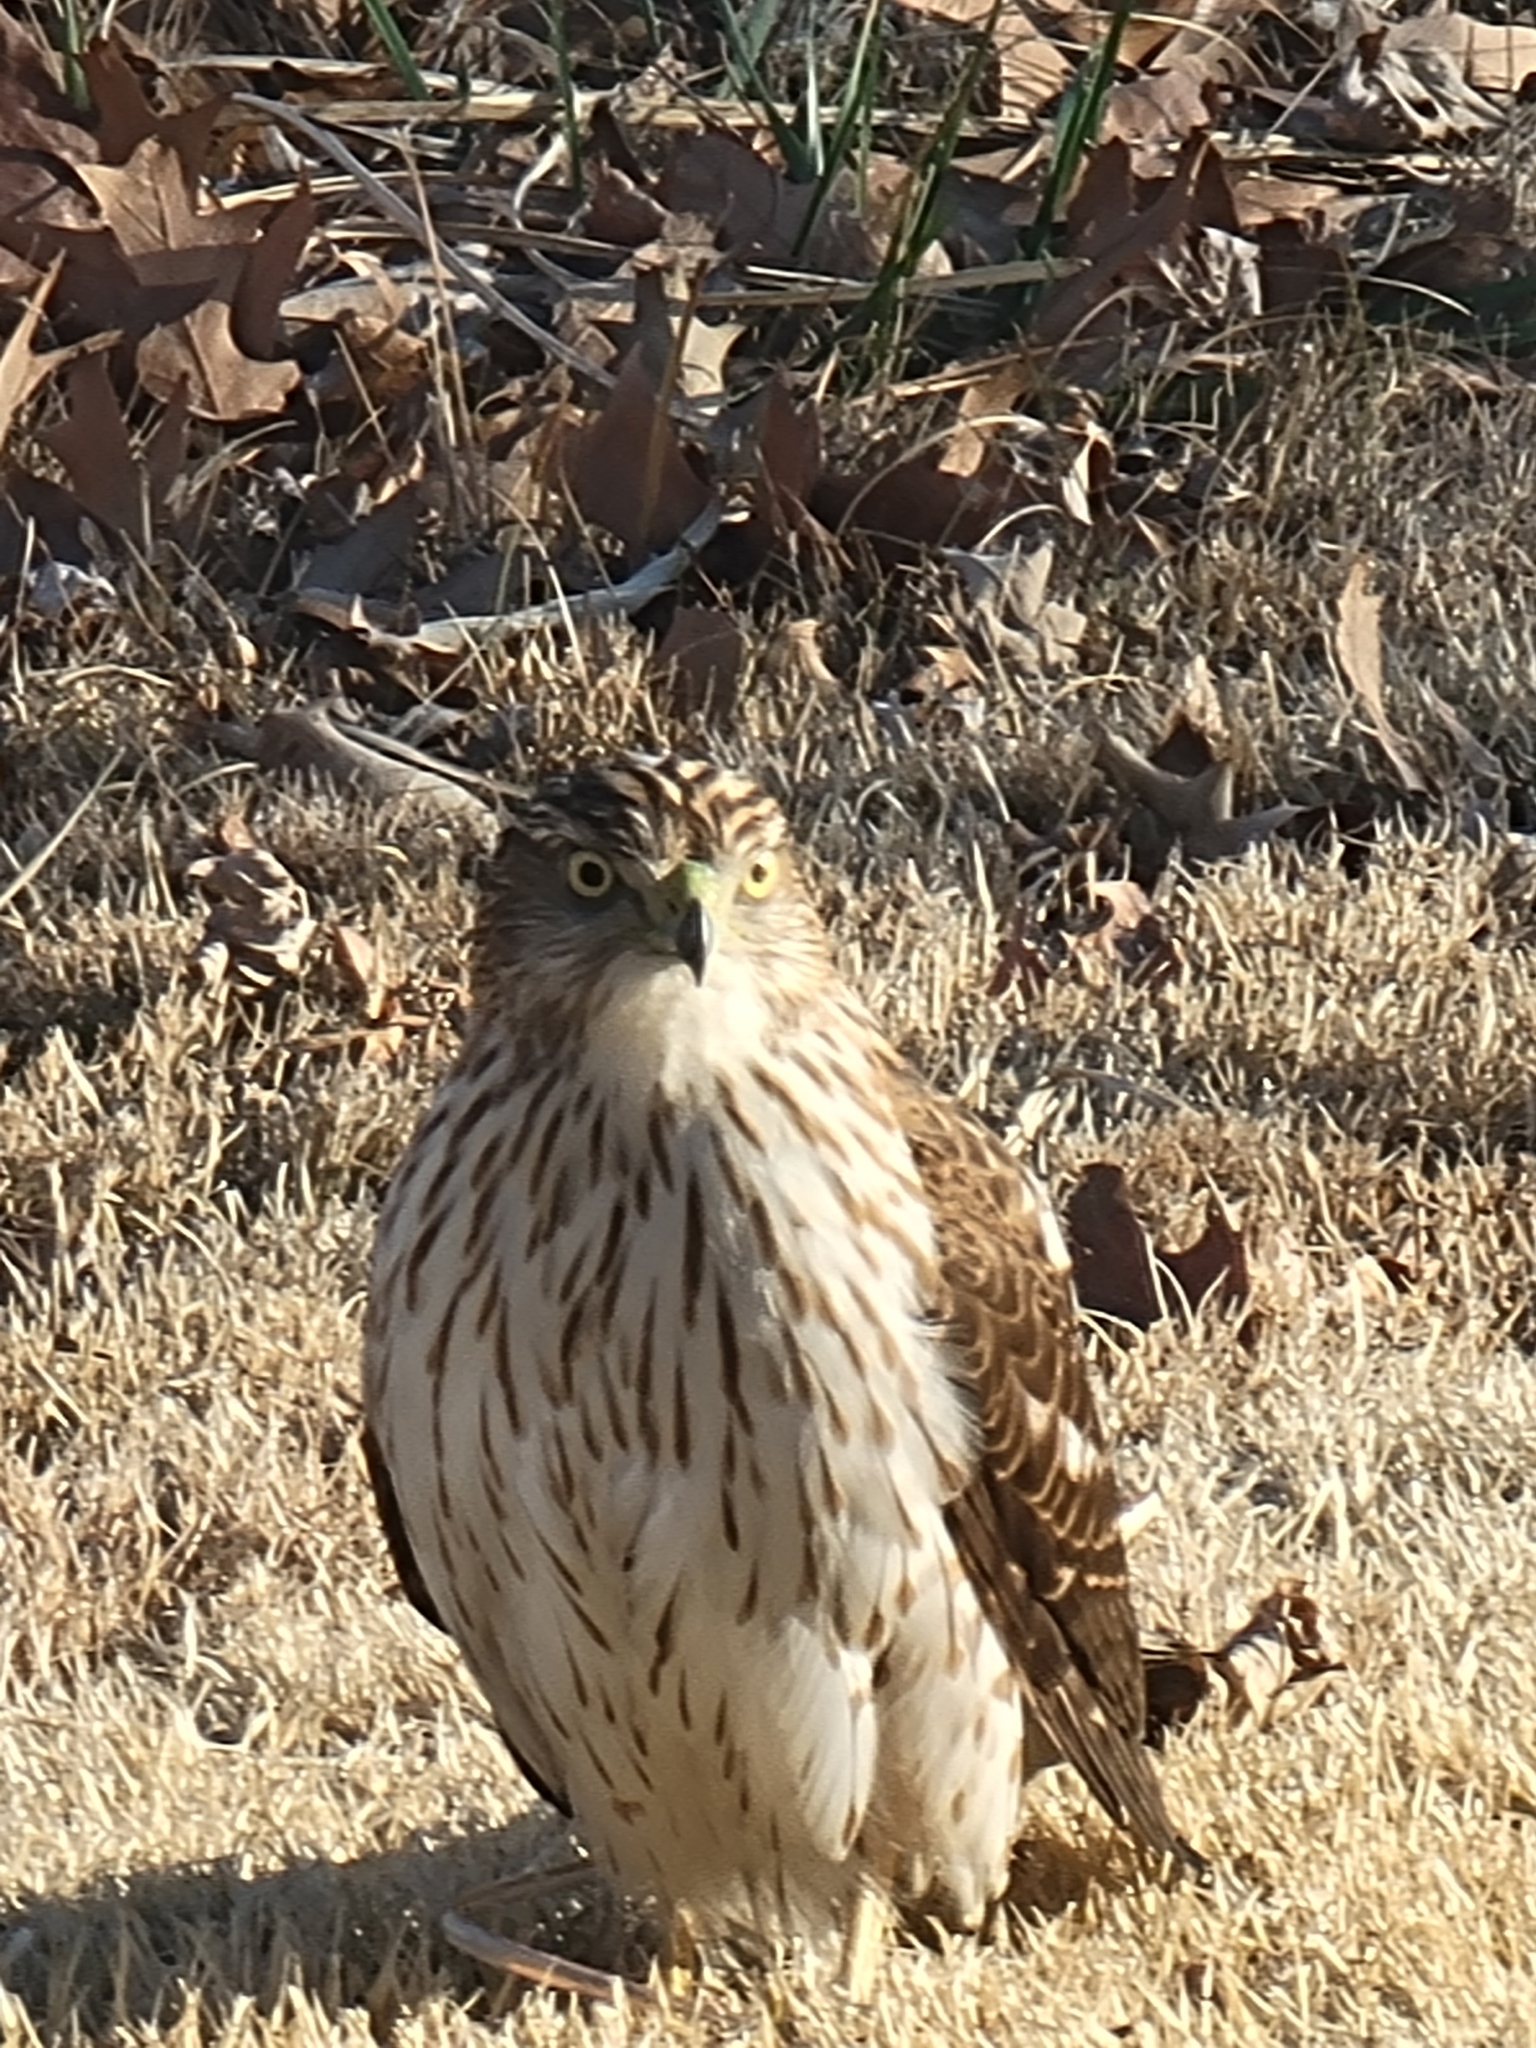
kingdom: Animalia
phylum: Chordata
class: Aves
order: Accipitriformes
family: Accipitridae
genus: Accipiter
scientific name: Accipiter cooperii
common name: Cooper's hawk
